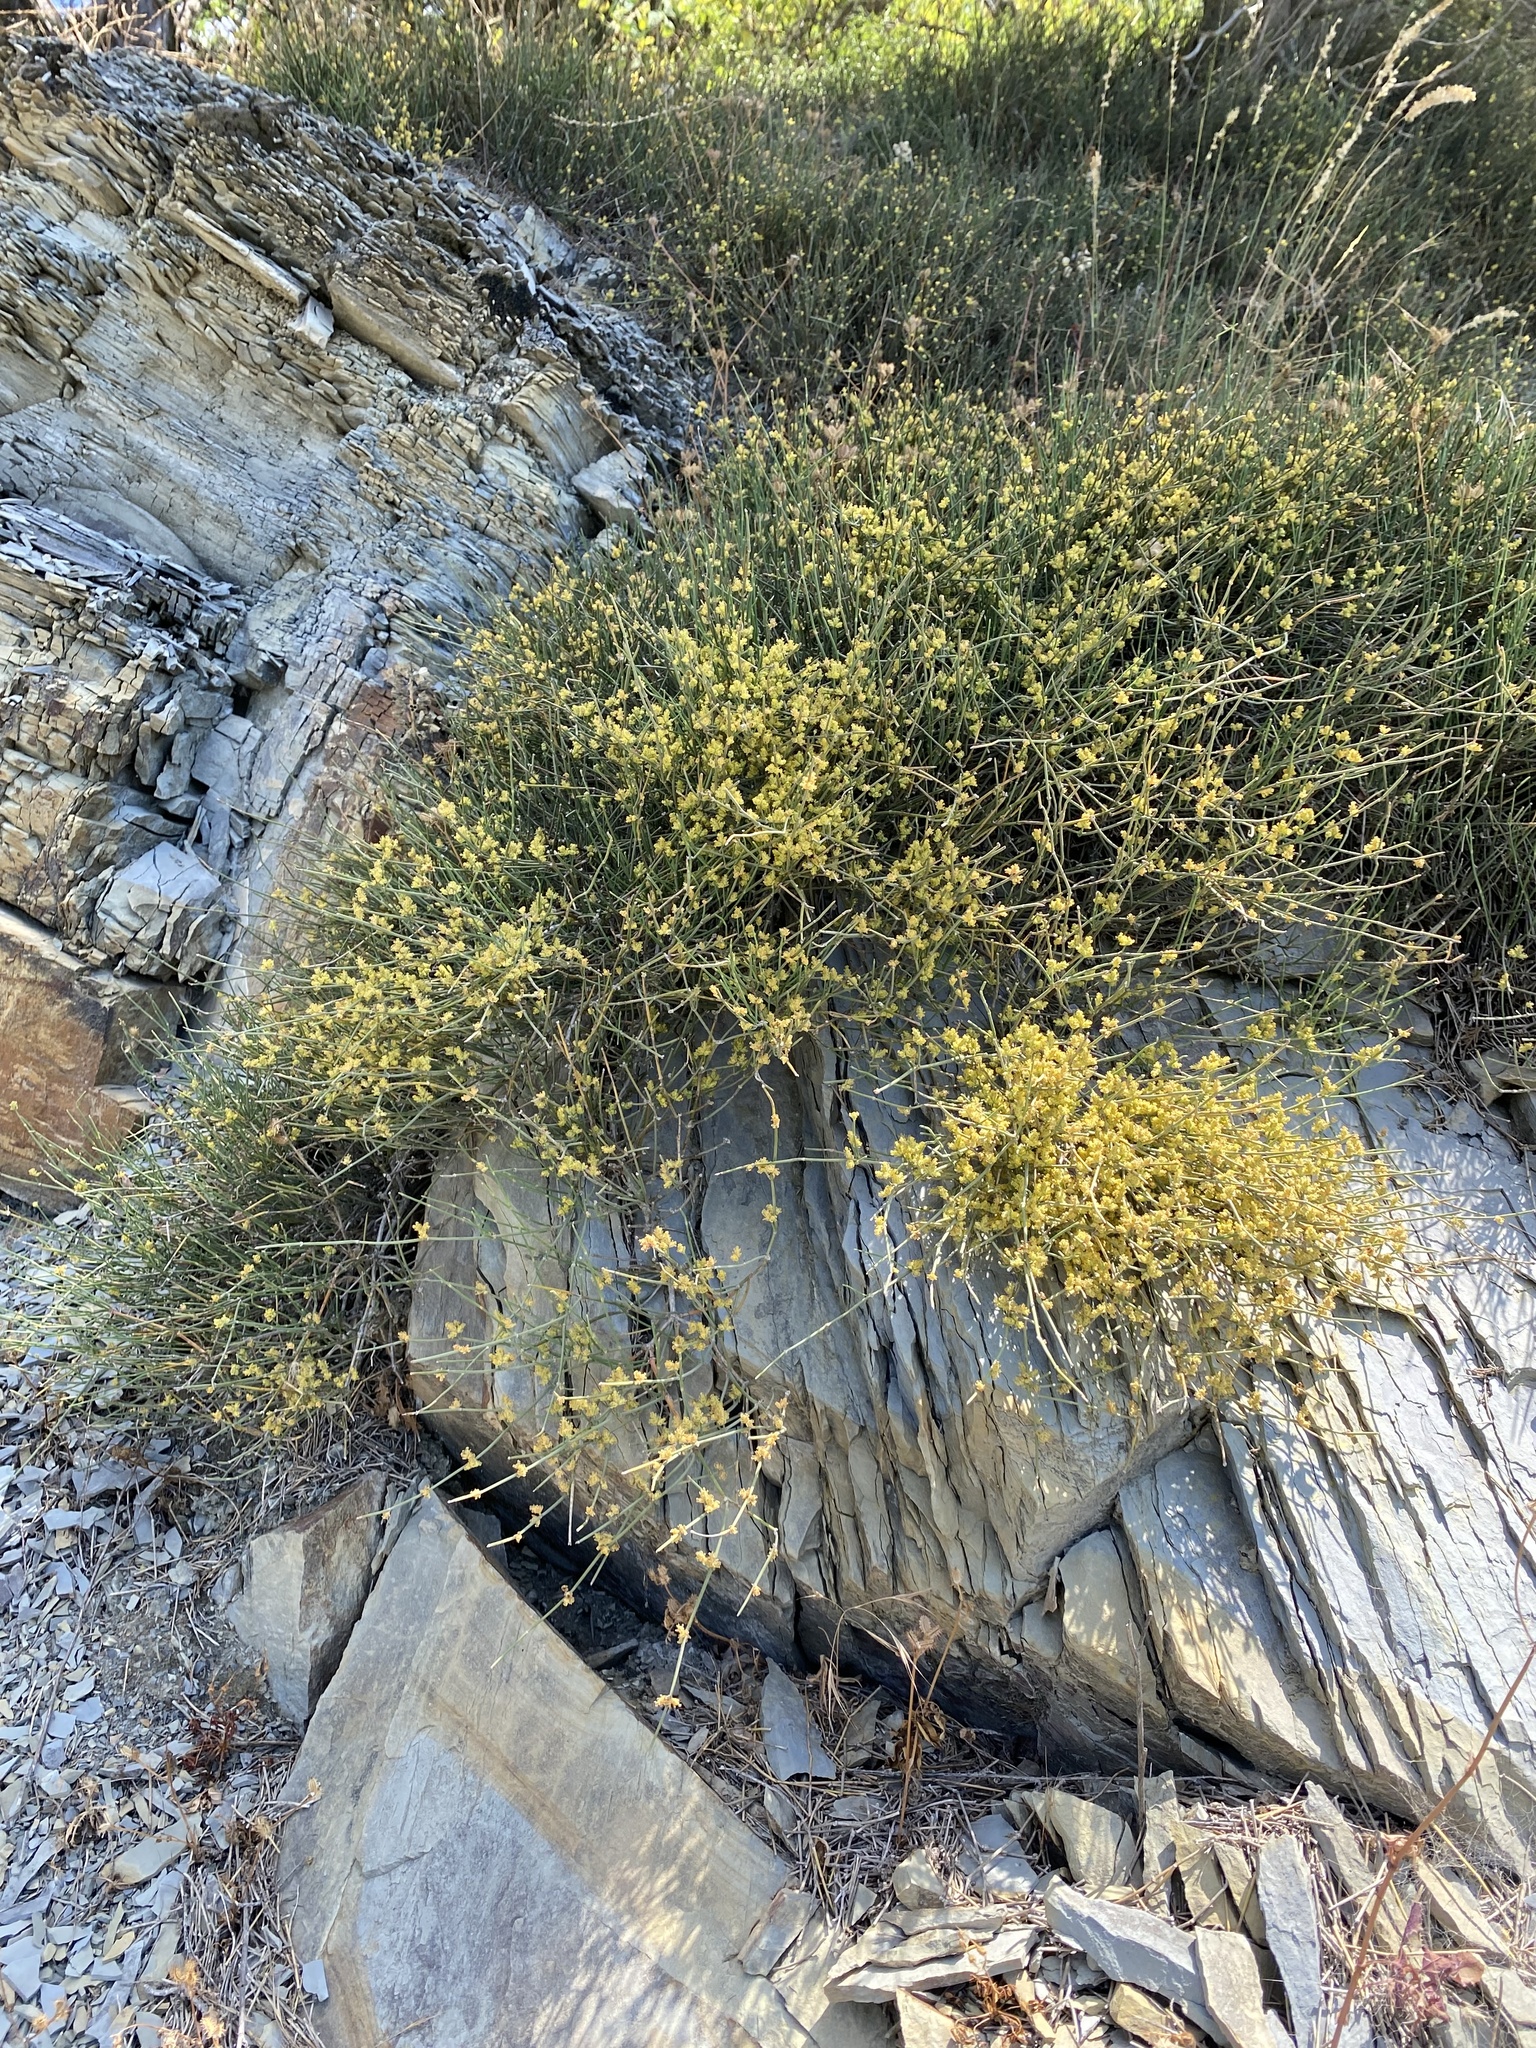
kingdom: Plantae
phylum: Tracheophyta
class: Gnetopsida
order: Ephedrales
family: Ephedraceae
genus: Ephedra
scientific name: Ephedra distachya
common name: Sea grape
